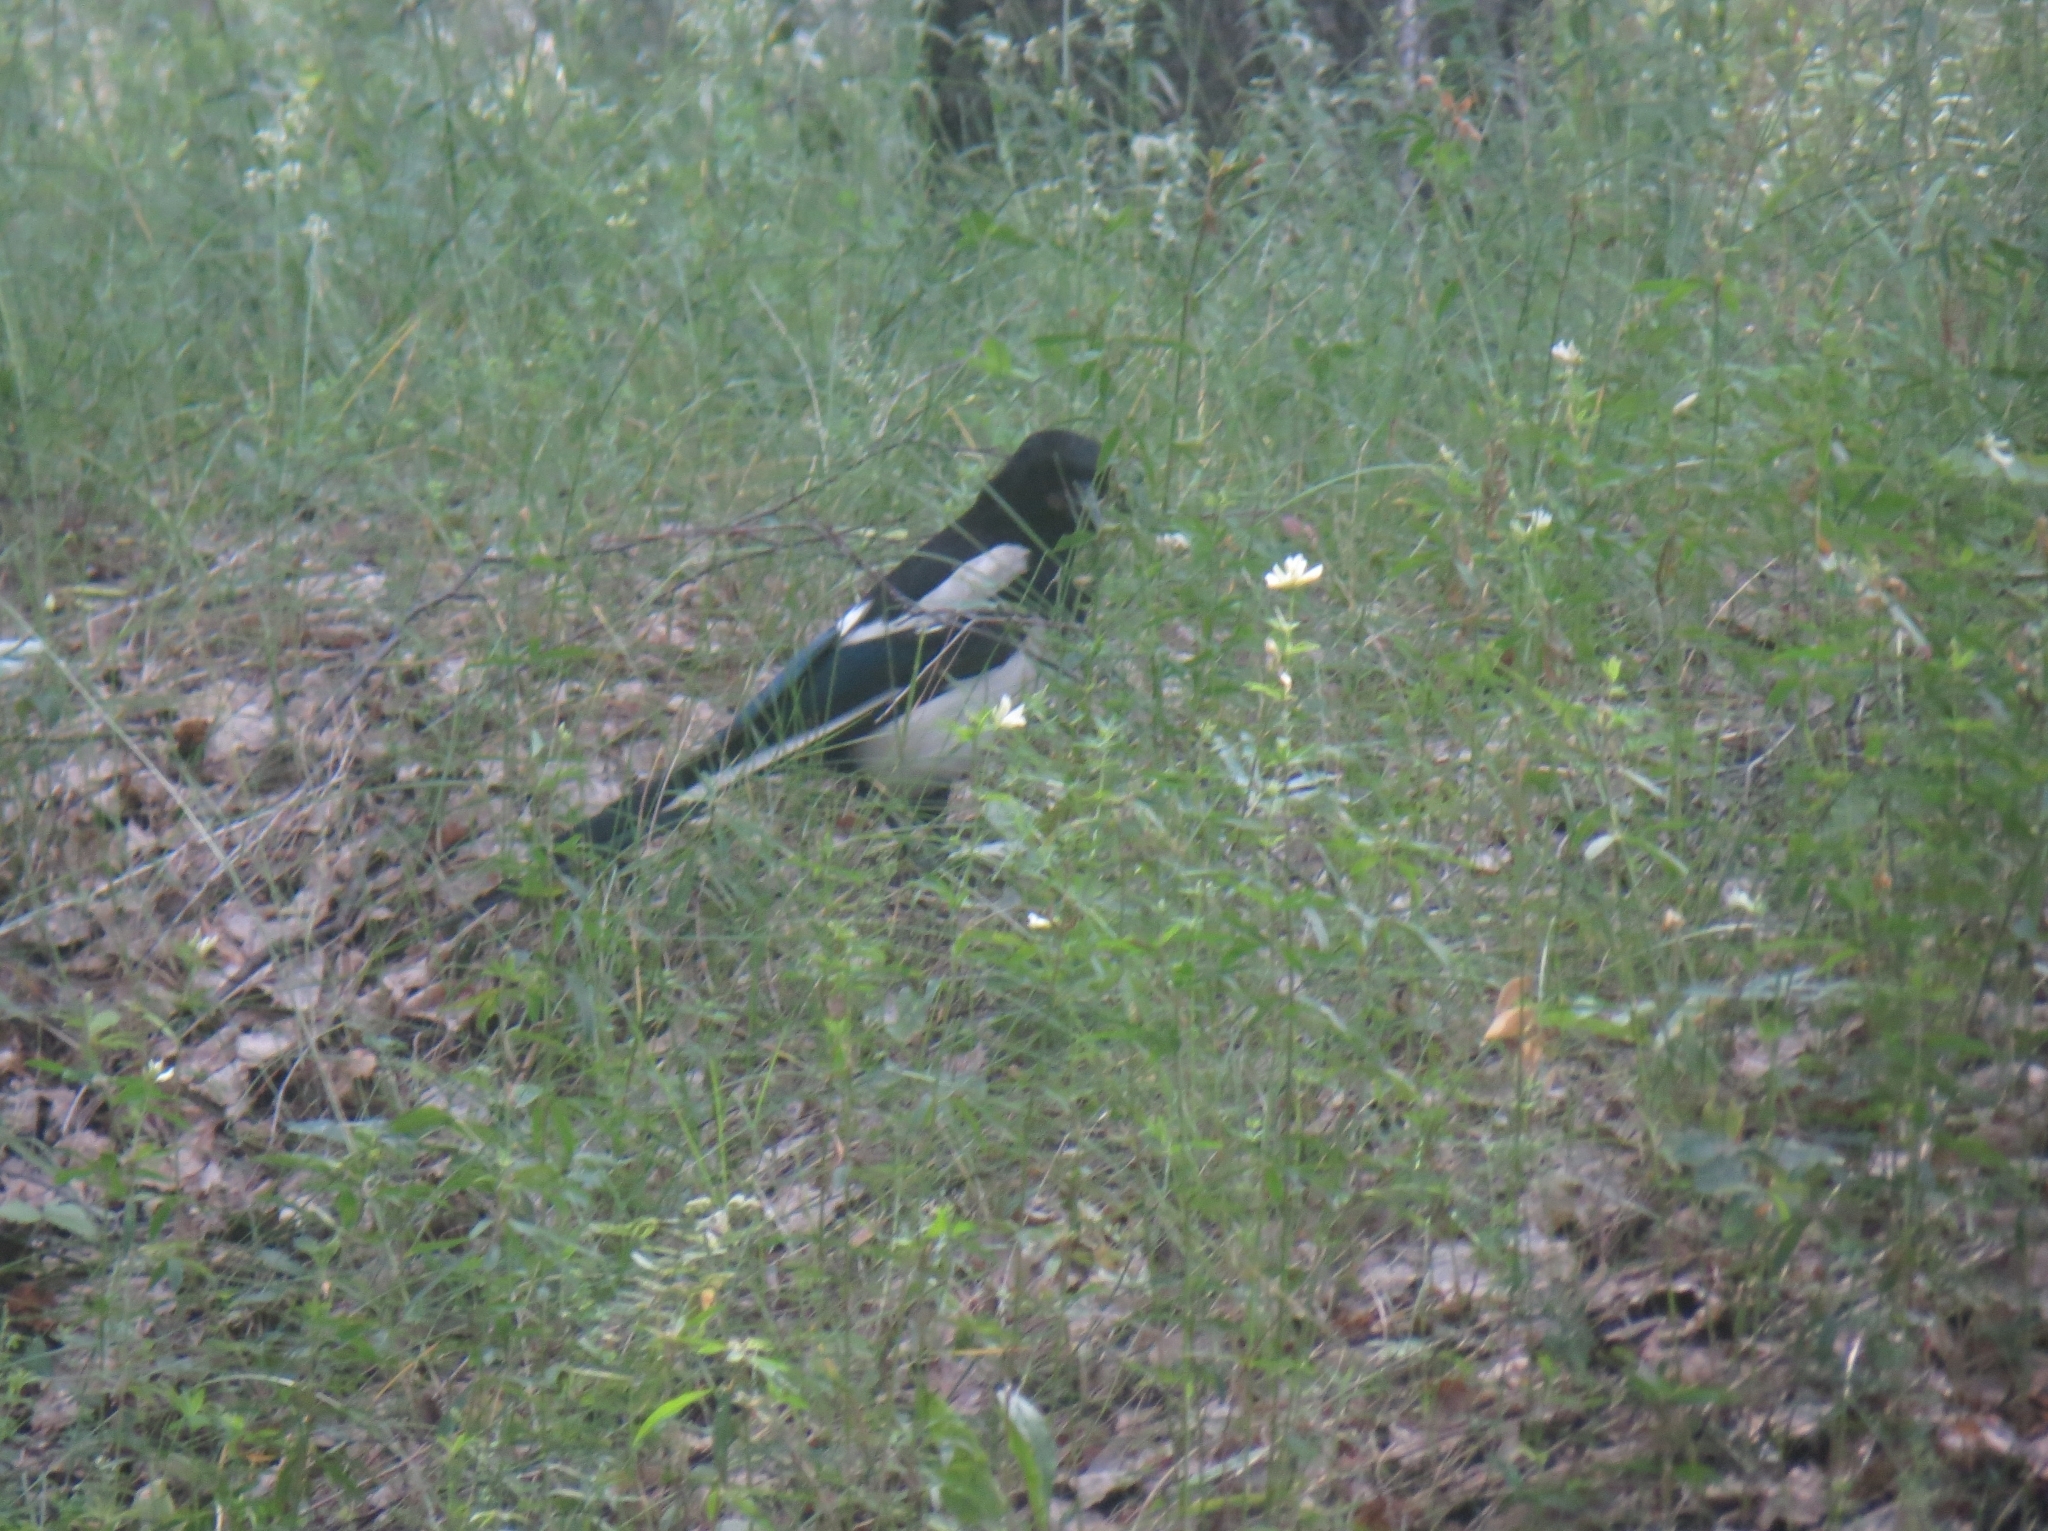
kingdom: Animalia
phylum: Chordata
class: Aves
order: Passeriformes
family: Corvidae
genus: Pica
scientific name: Pica pica
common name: Eurasian magpie
